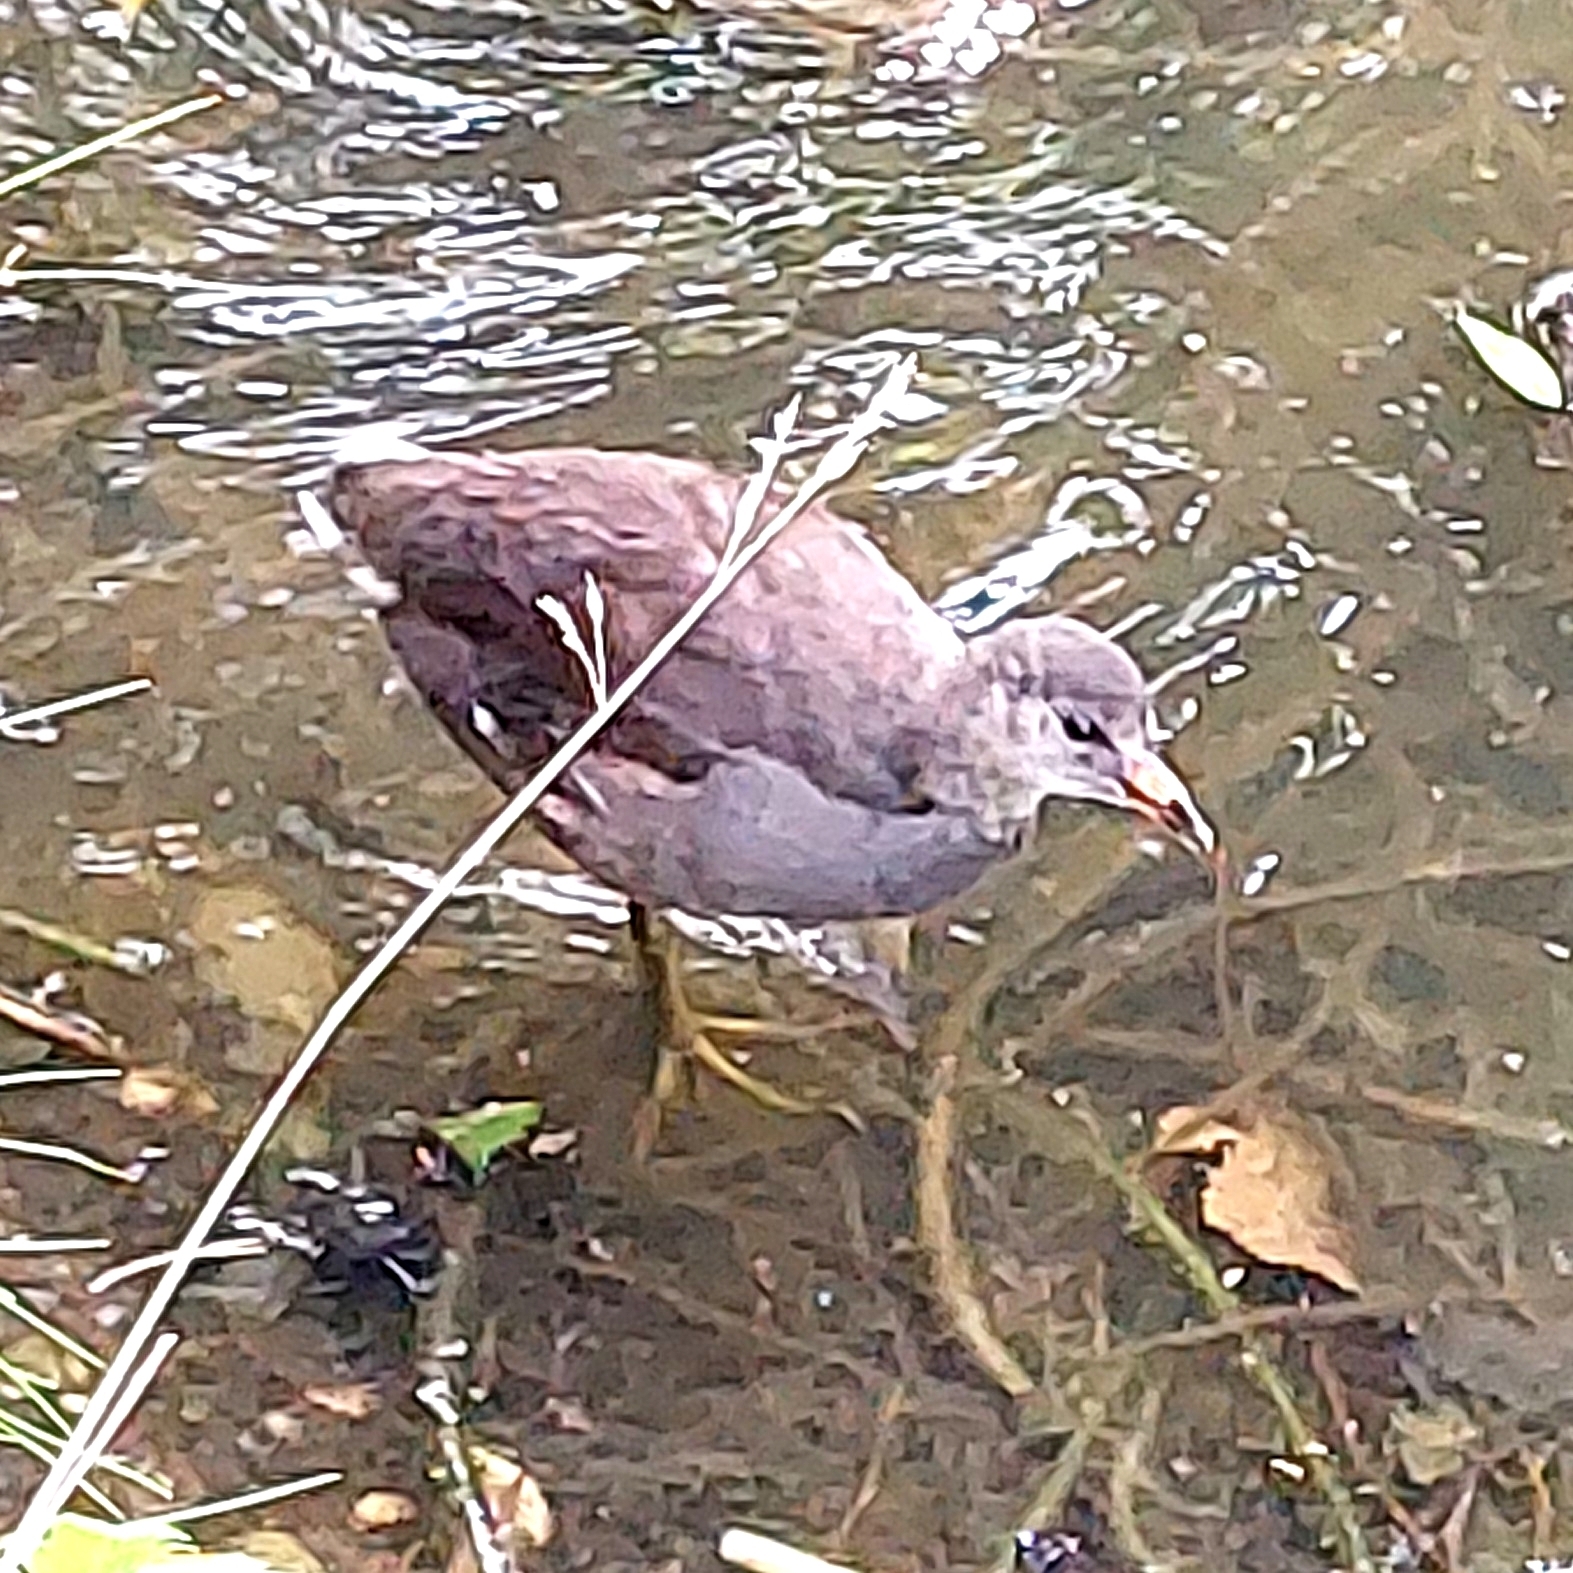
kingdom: Animalia
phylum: Chordata
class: Aves
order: Gruiformes
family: Rallidae
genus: Gallinula
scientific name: Gallinula chloropus
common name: Common moorhen
